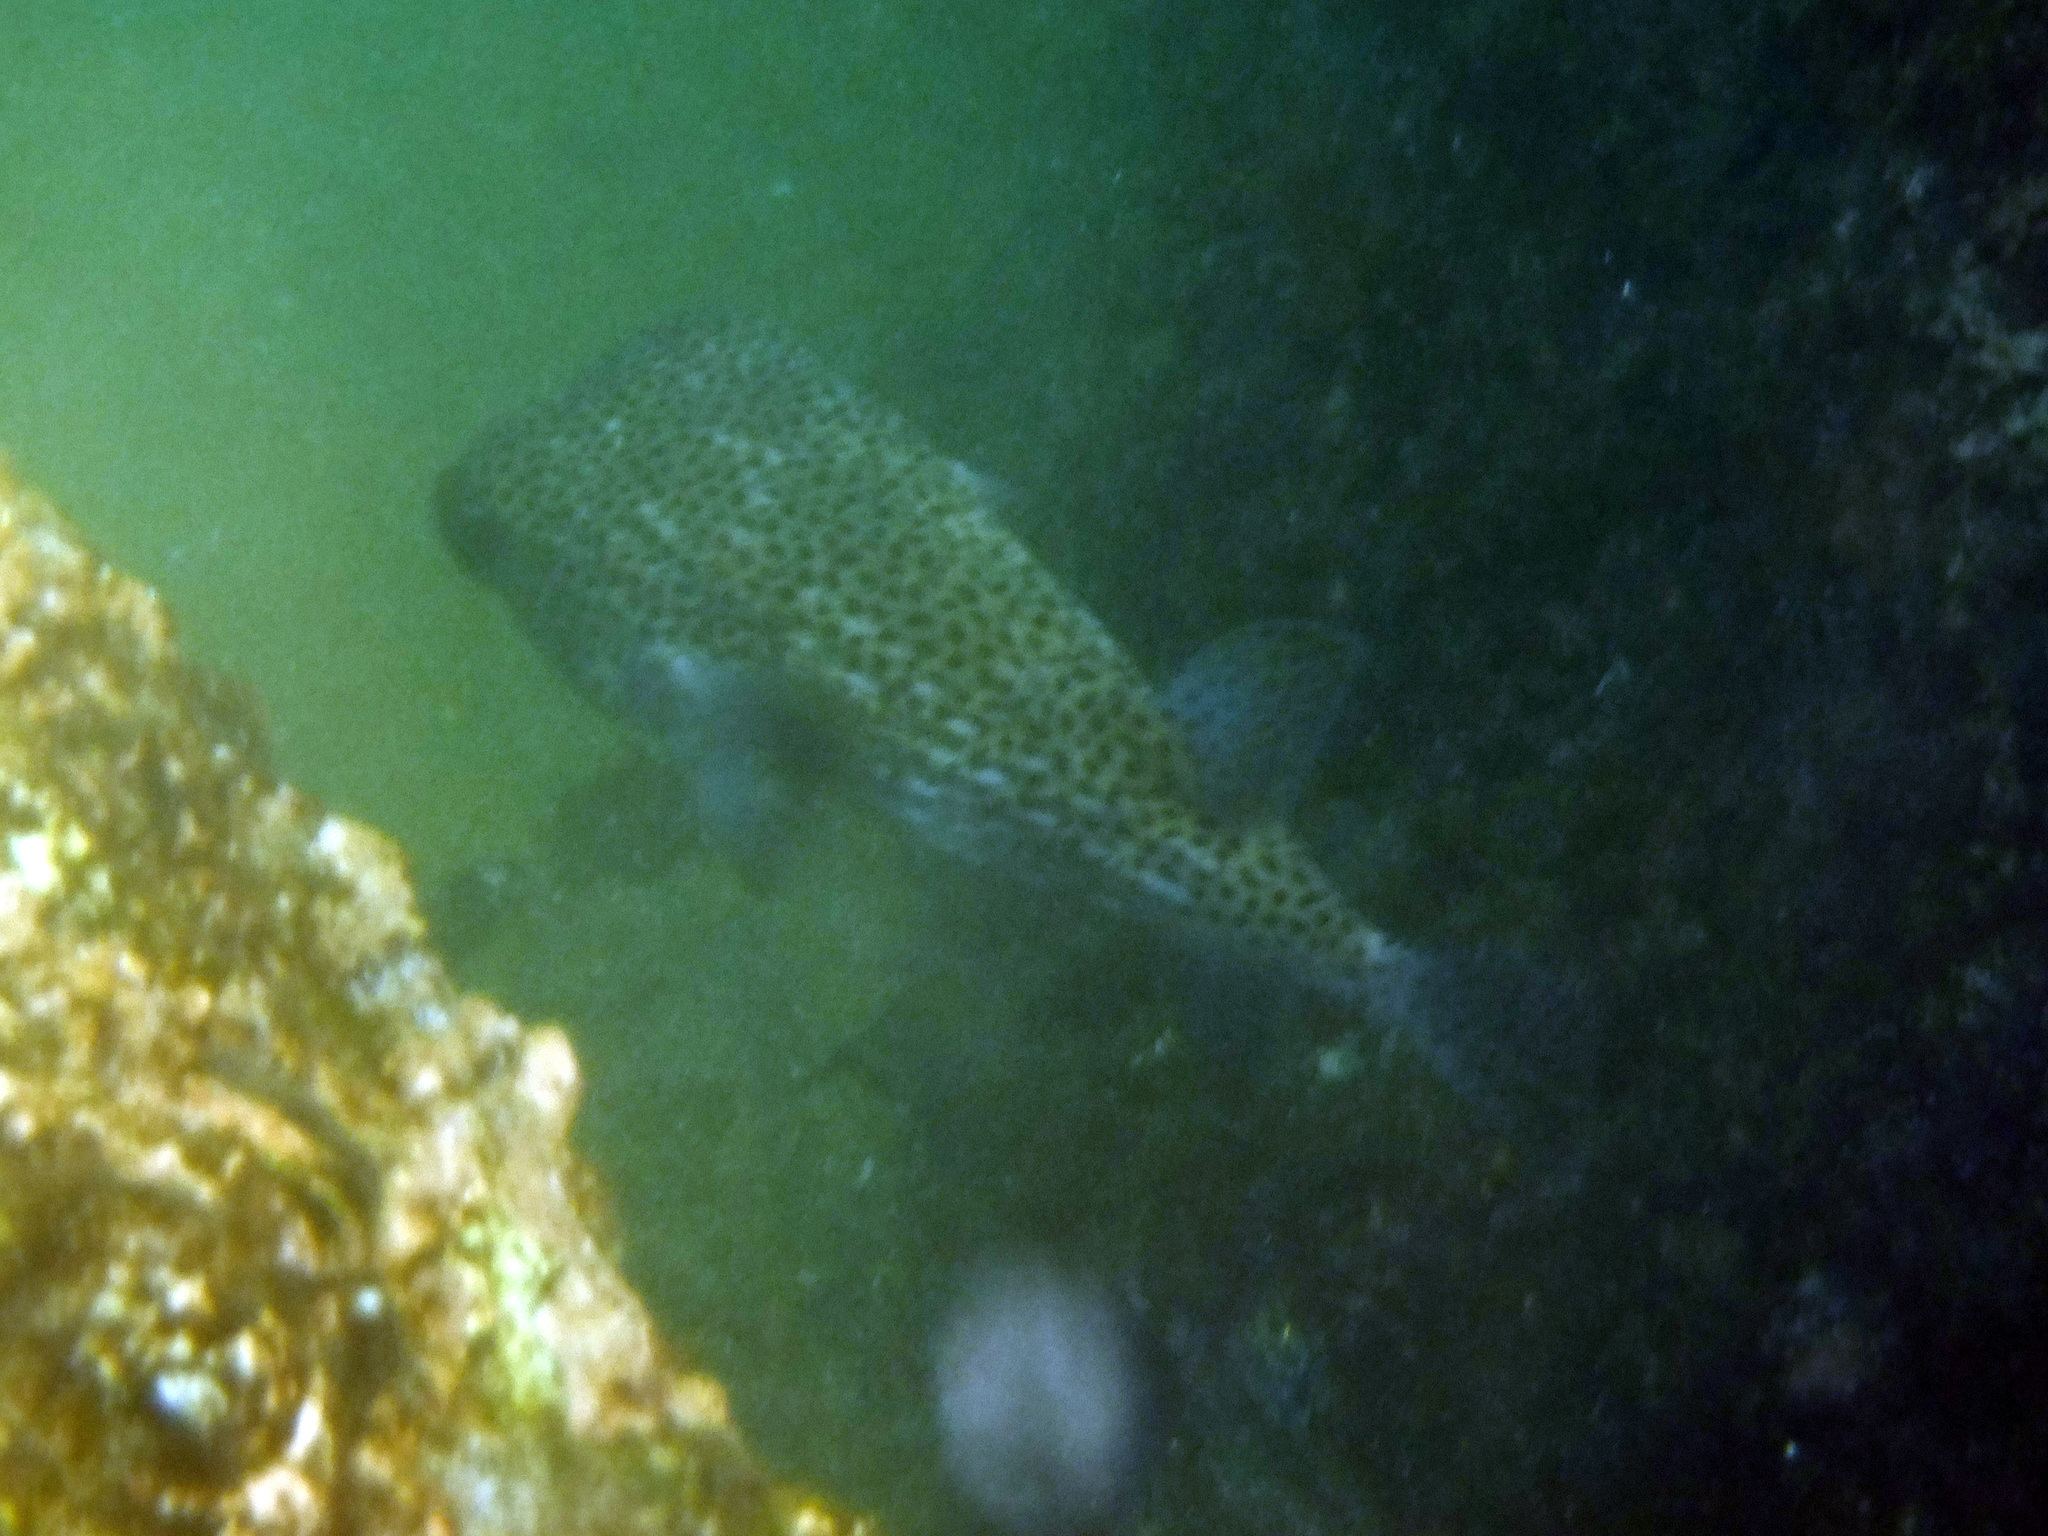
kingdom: Animalia
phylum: Chordata
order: Tetraodontiformes
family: Diodontidae
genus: Diodon
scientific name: Diodon hystrix
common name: Giant porcupinefish
